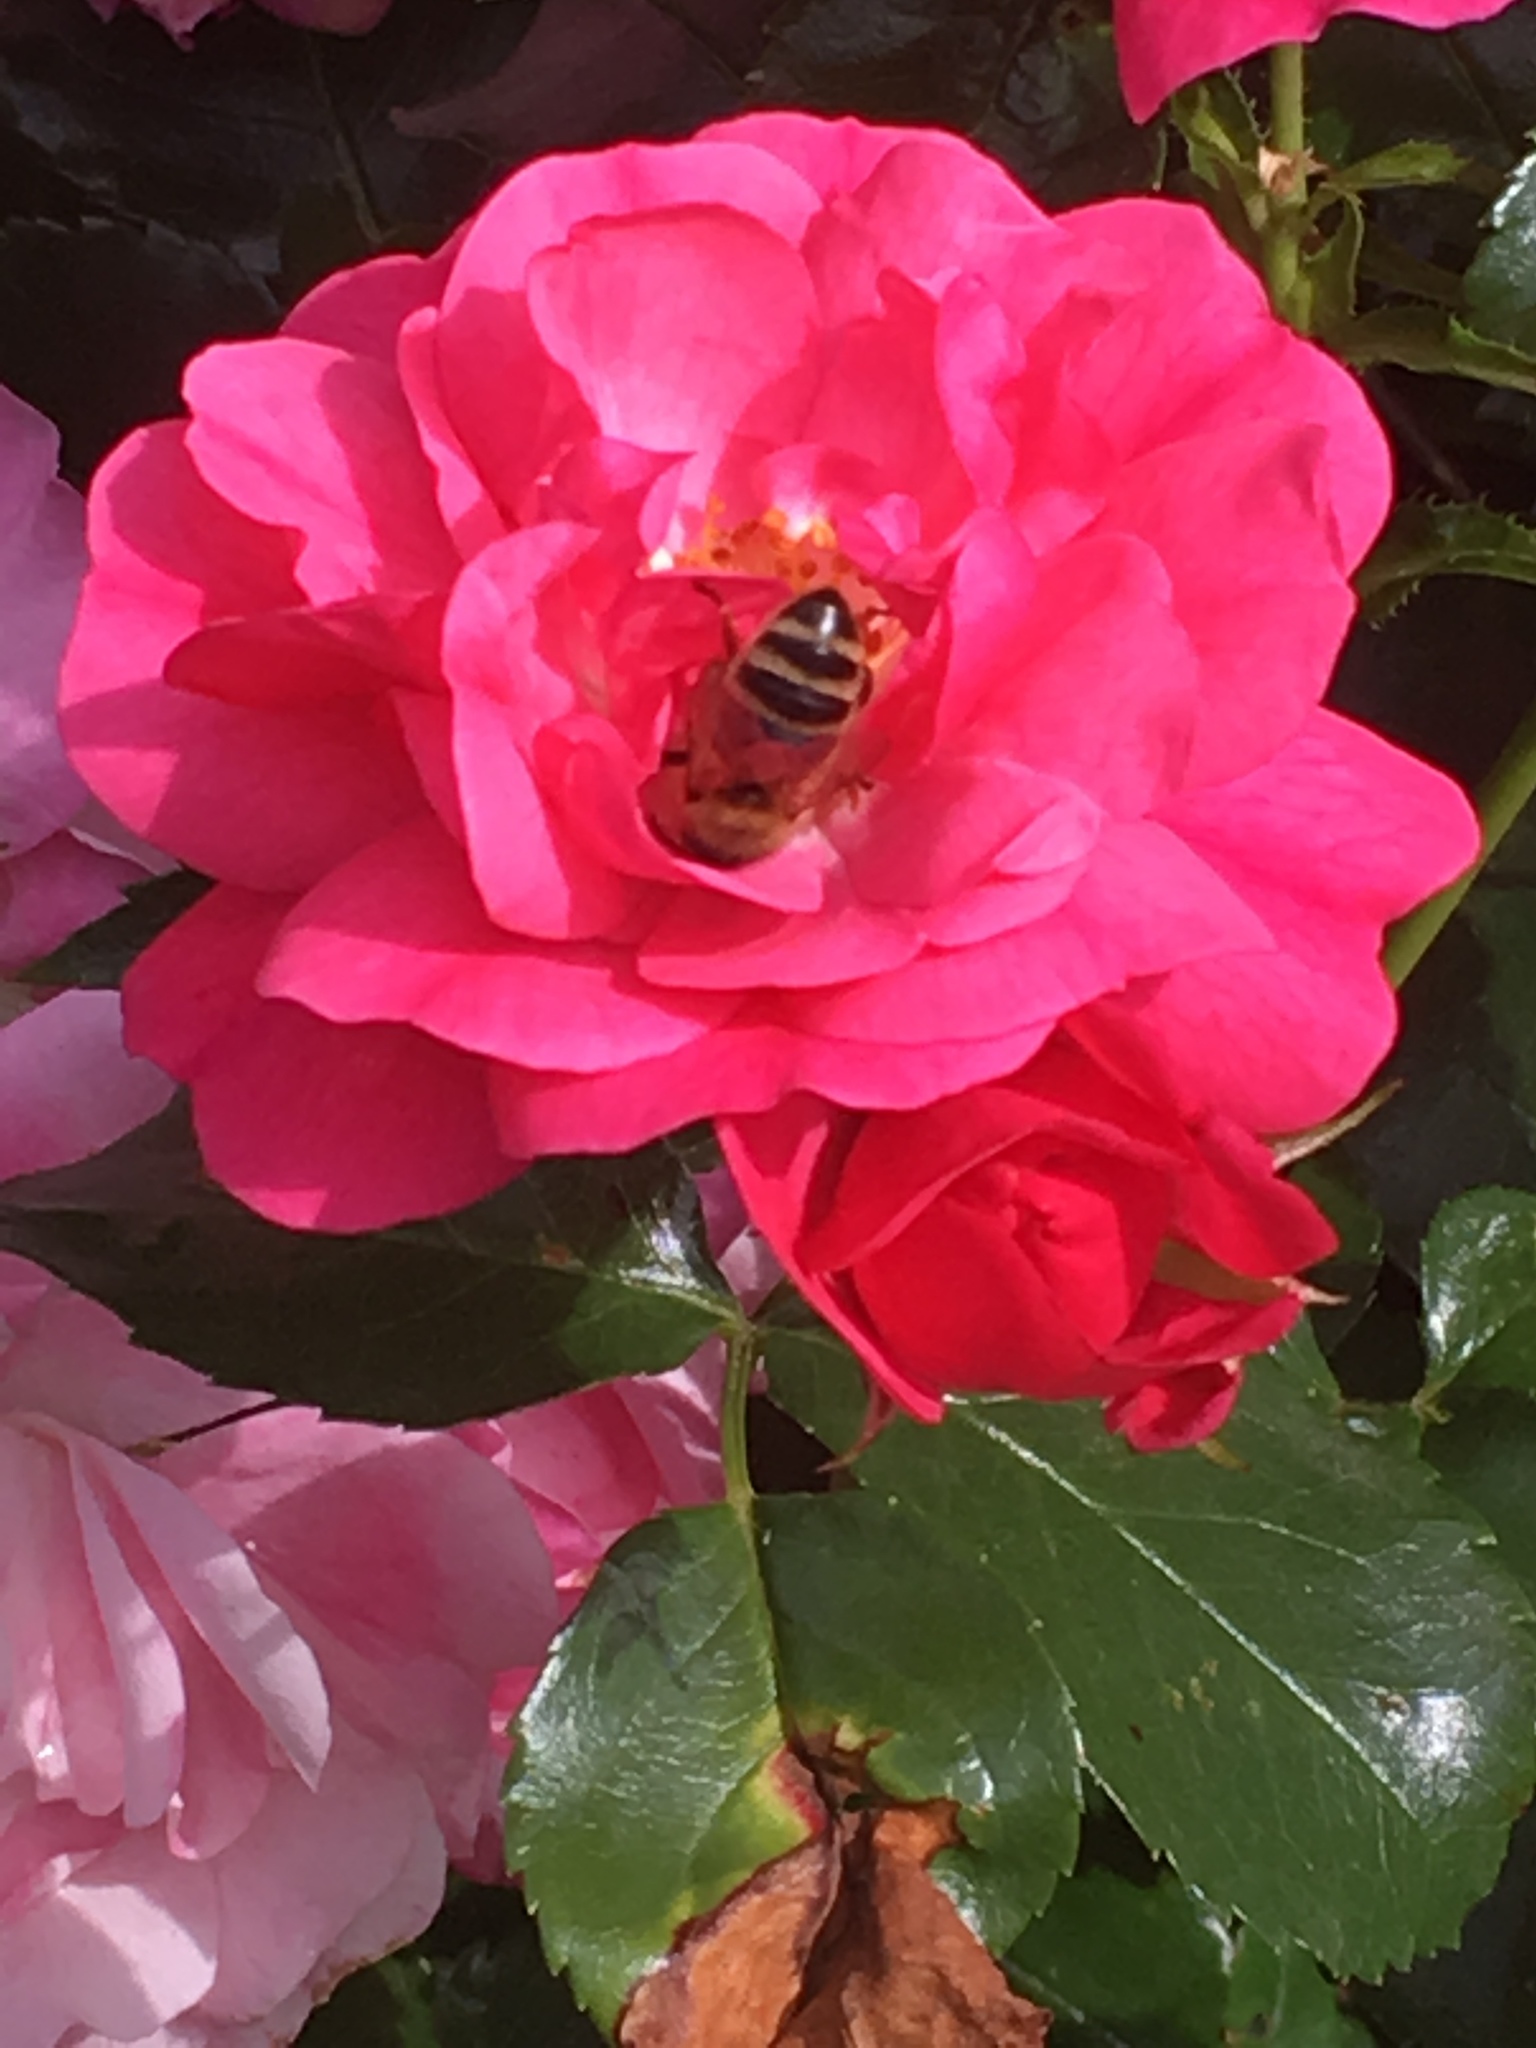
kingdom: Animalia
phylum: Arthropoda
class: Insecta
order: Hymenoptera
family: Apidae
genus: Apis
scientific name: Apis mellifera
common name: Honey bee
